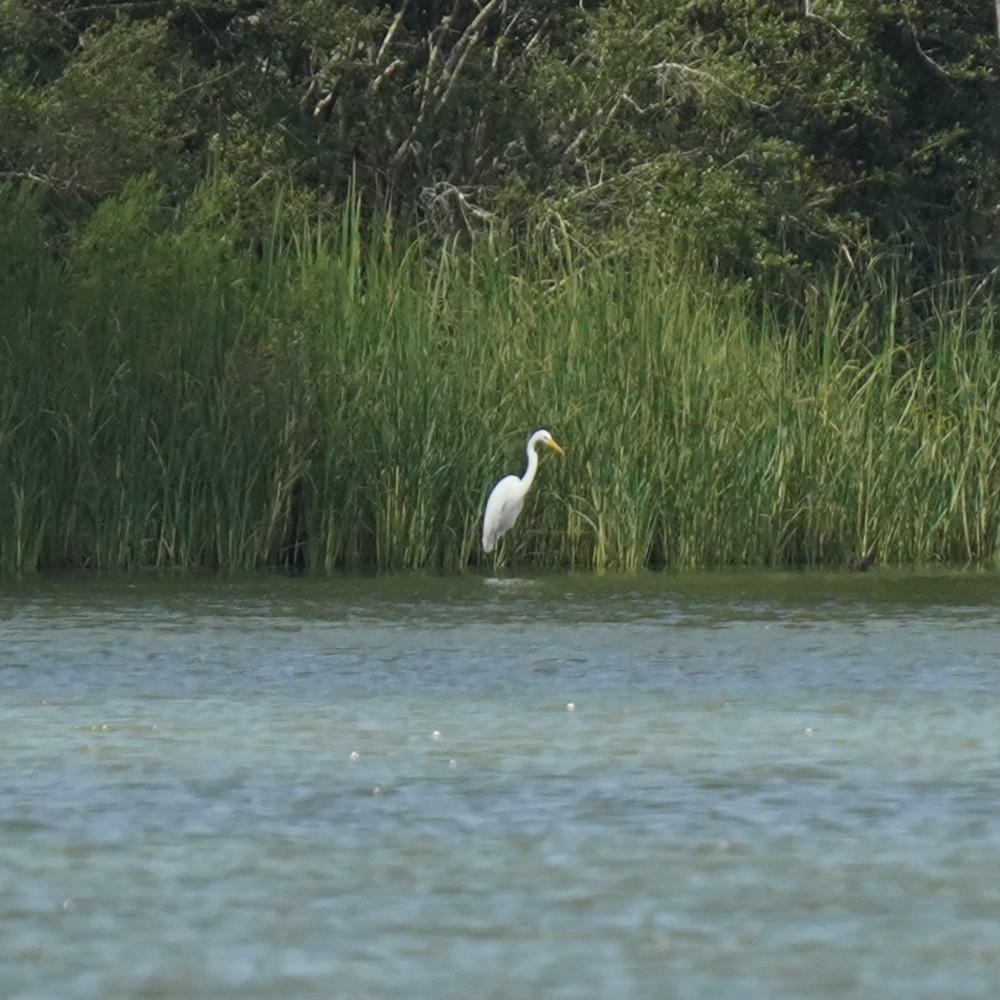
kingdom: Animalia
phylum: Chordata
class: Aves
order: Pelecaniformes
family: Ardeidae
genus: Ardea
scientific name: Ardea alba
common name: Great egret
